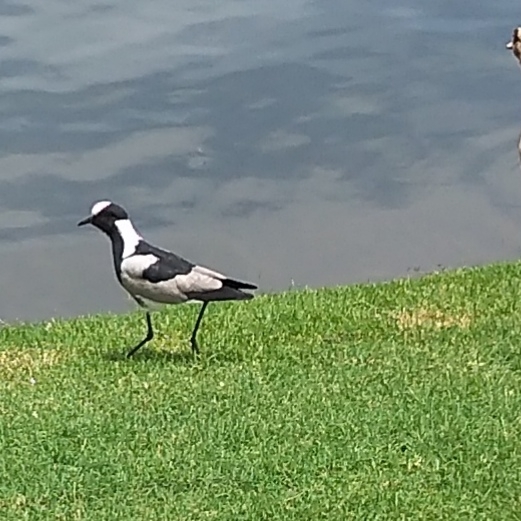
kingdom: Animalia
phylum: Chordata
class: Aves
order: Charadriiformes
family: Charadriidae
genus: Vanellus
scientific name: Vanellus armatus
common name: Blacksmith lapwing
